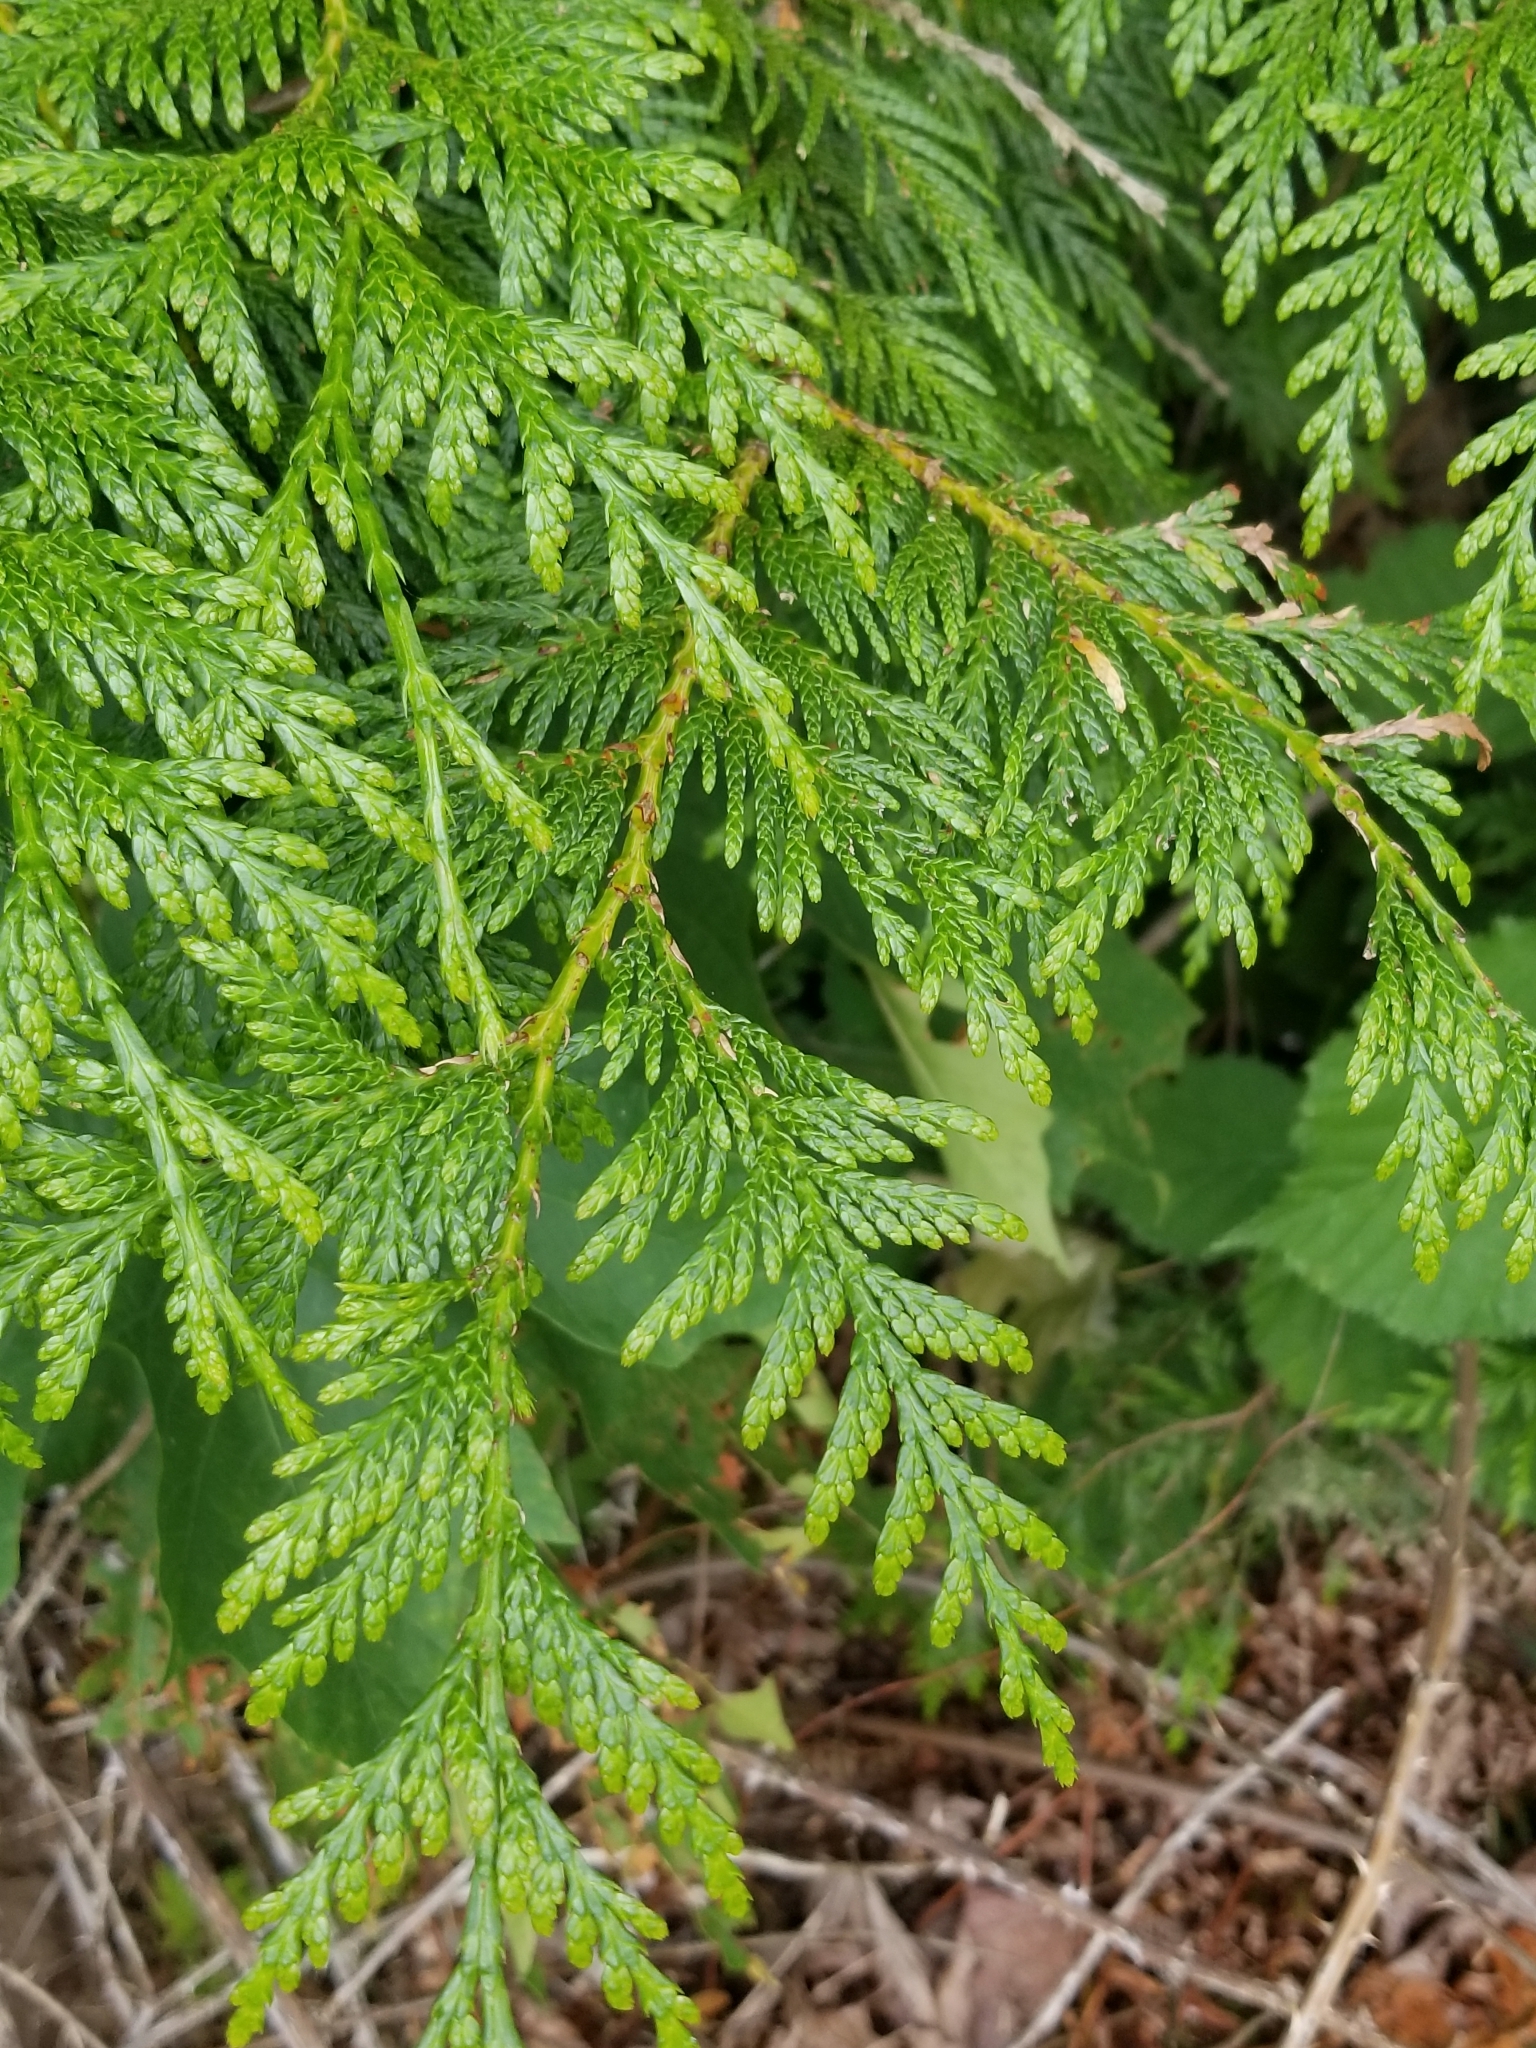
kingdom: Plantae
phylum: Tracheophyta
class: Pinopsida
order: Pinales
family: Cupressaceae
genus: Thuja
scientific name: Thuja plicata
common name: Western red-cedar
